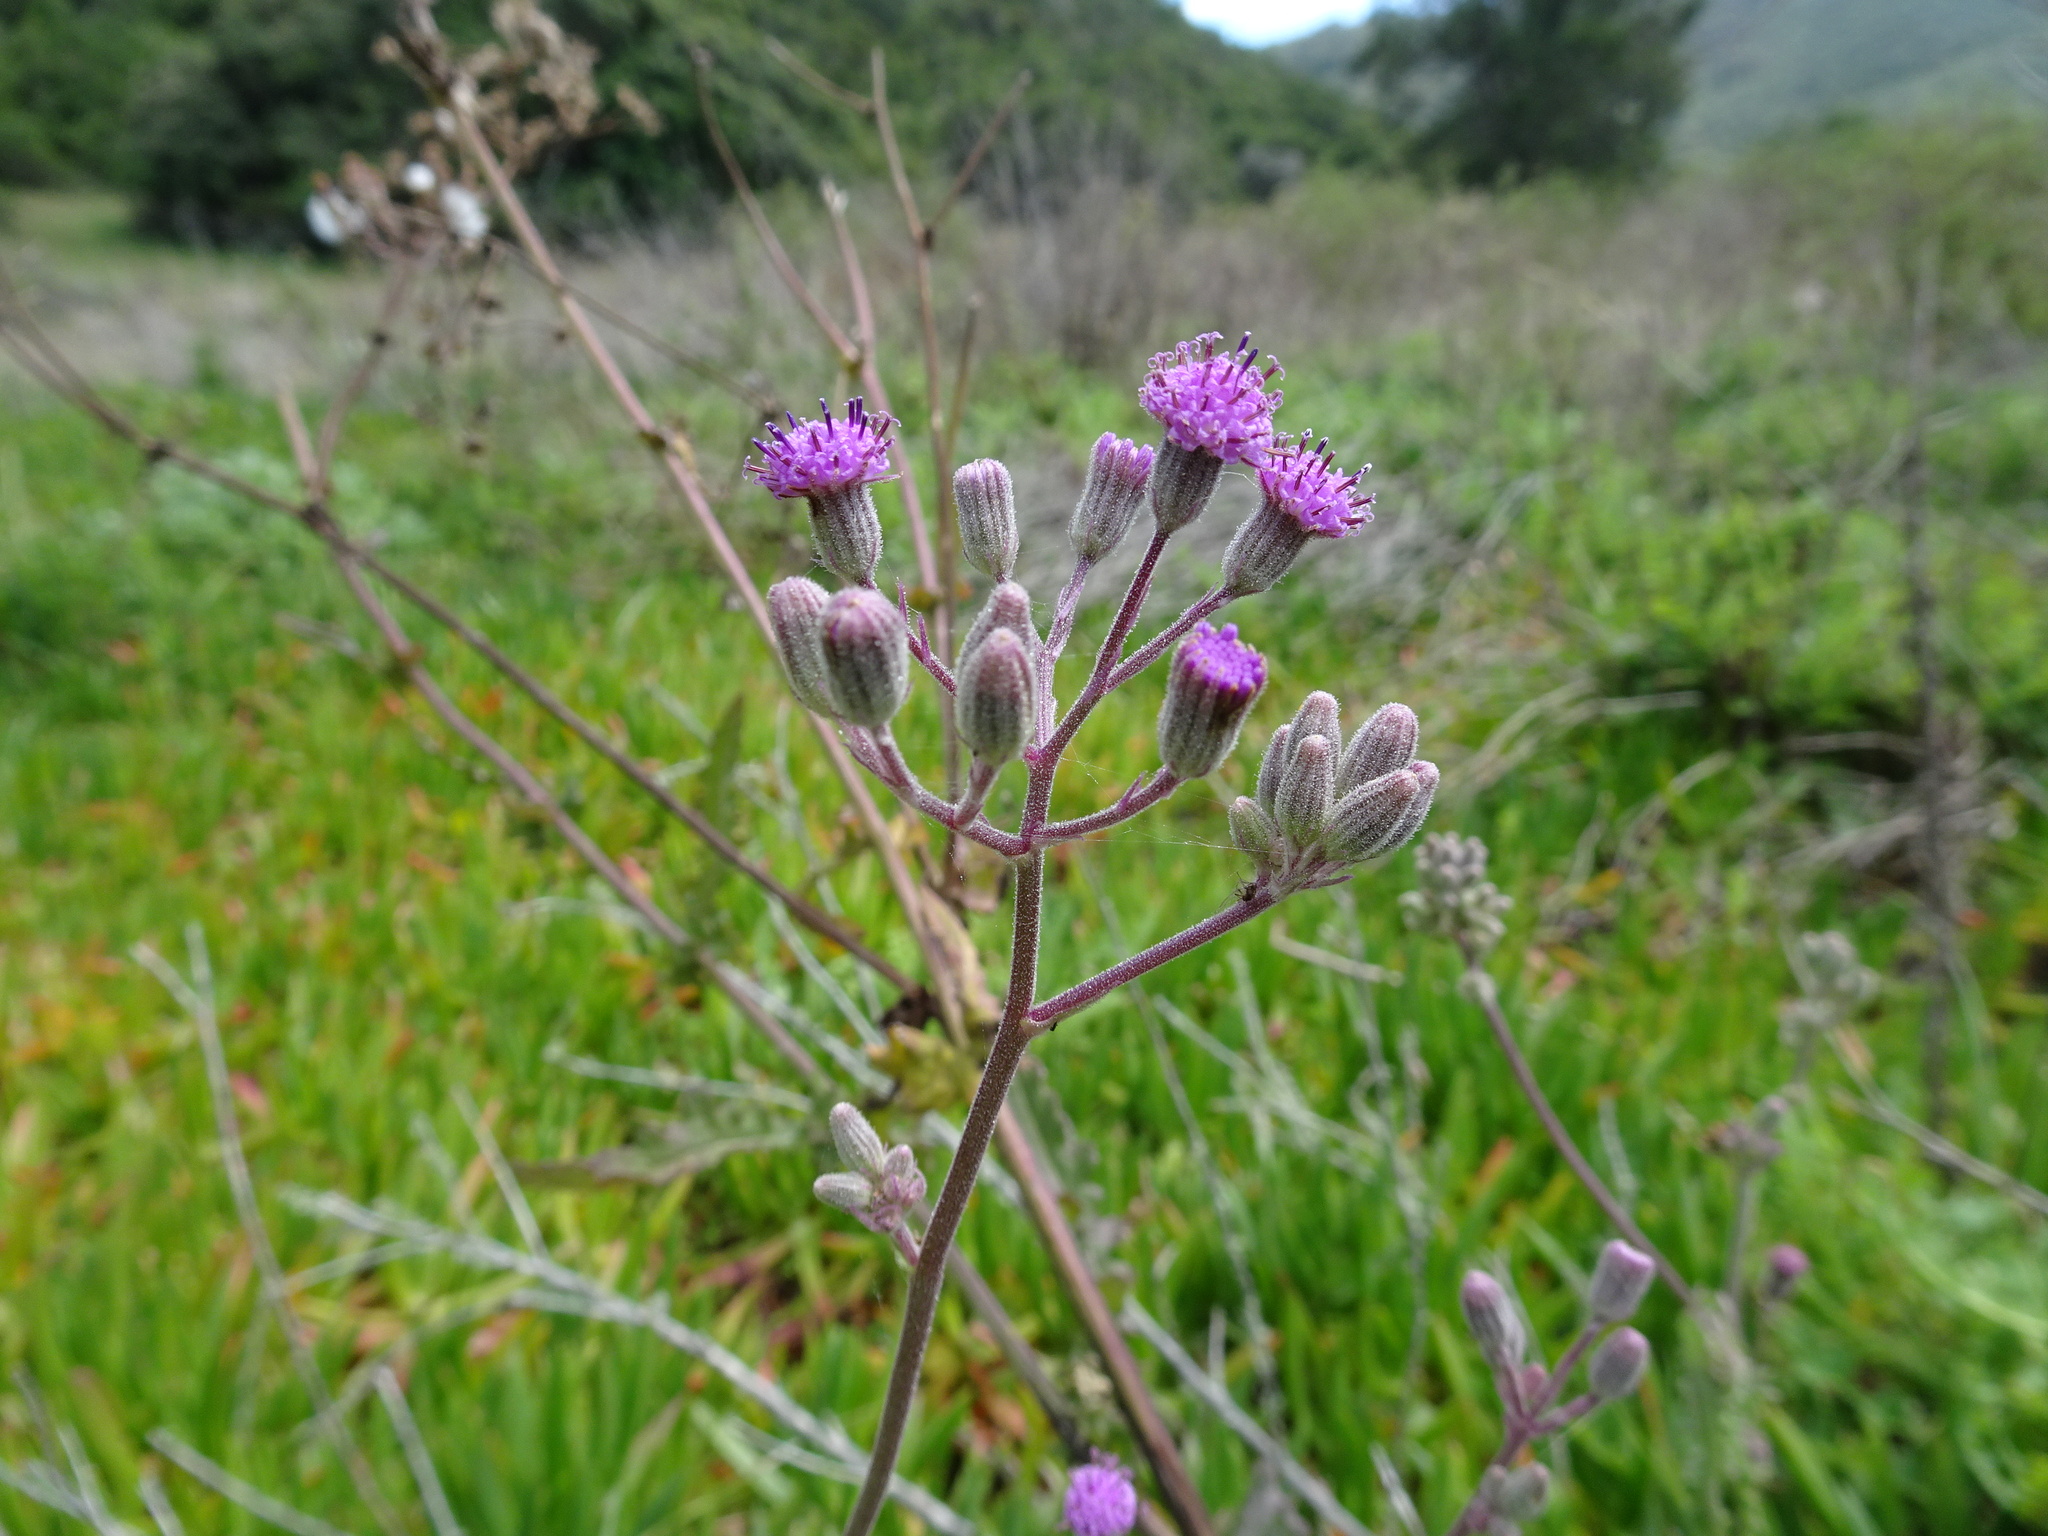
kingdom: Plantae
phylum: Tracheophyta
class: Magnoliopsida
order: Asterales
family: Asteraceae
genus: Senecio
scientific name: Senecio purpureus
